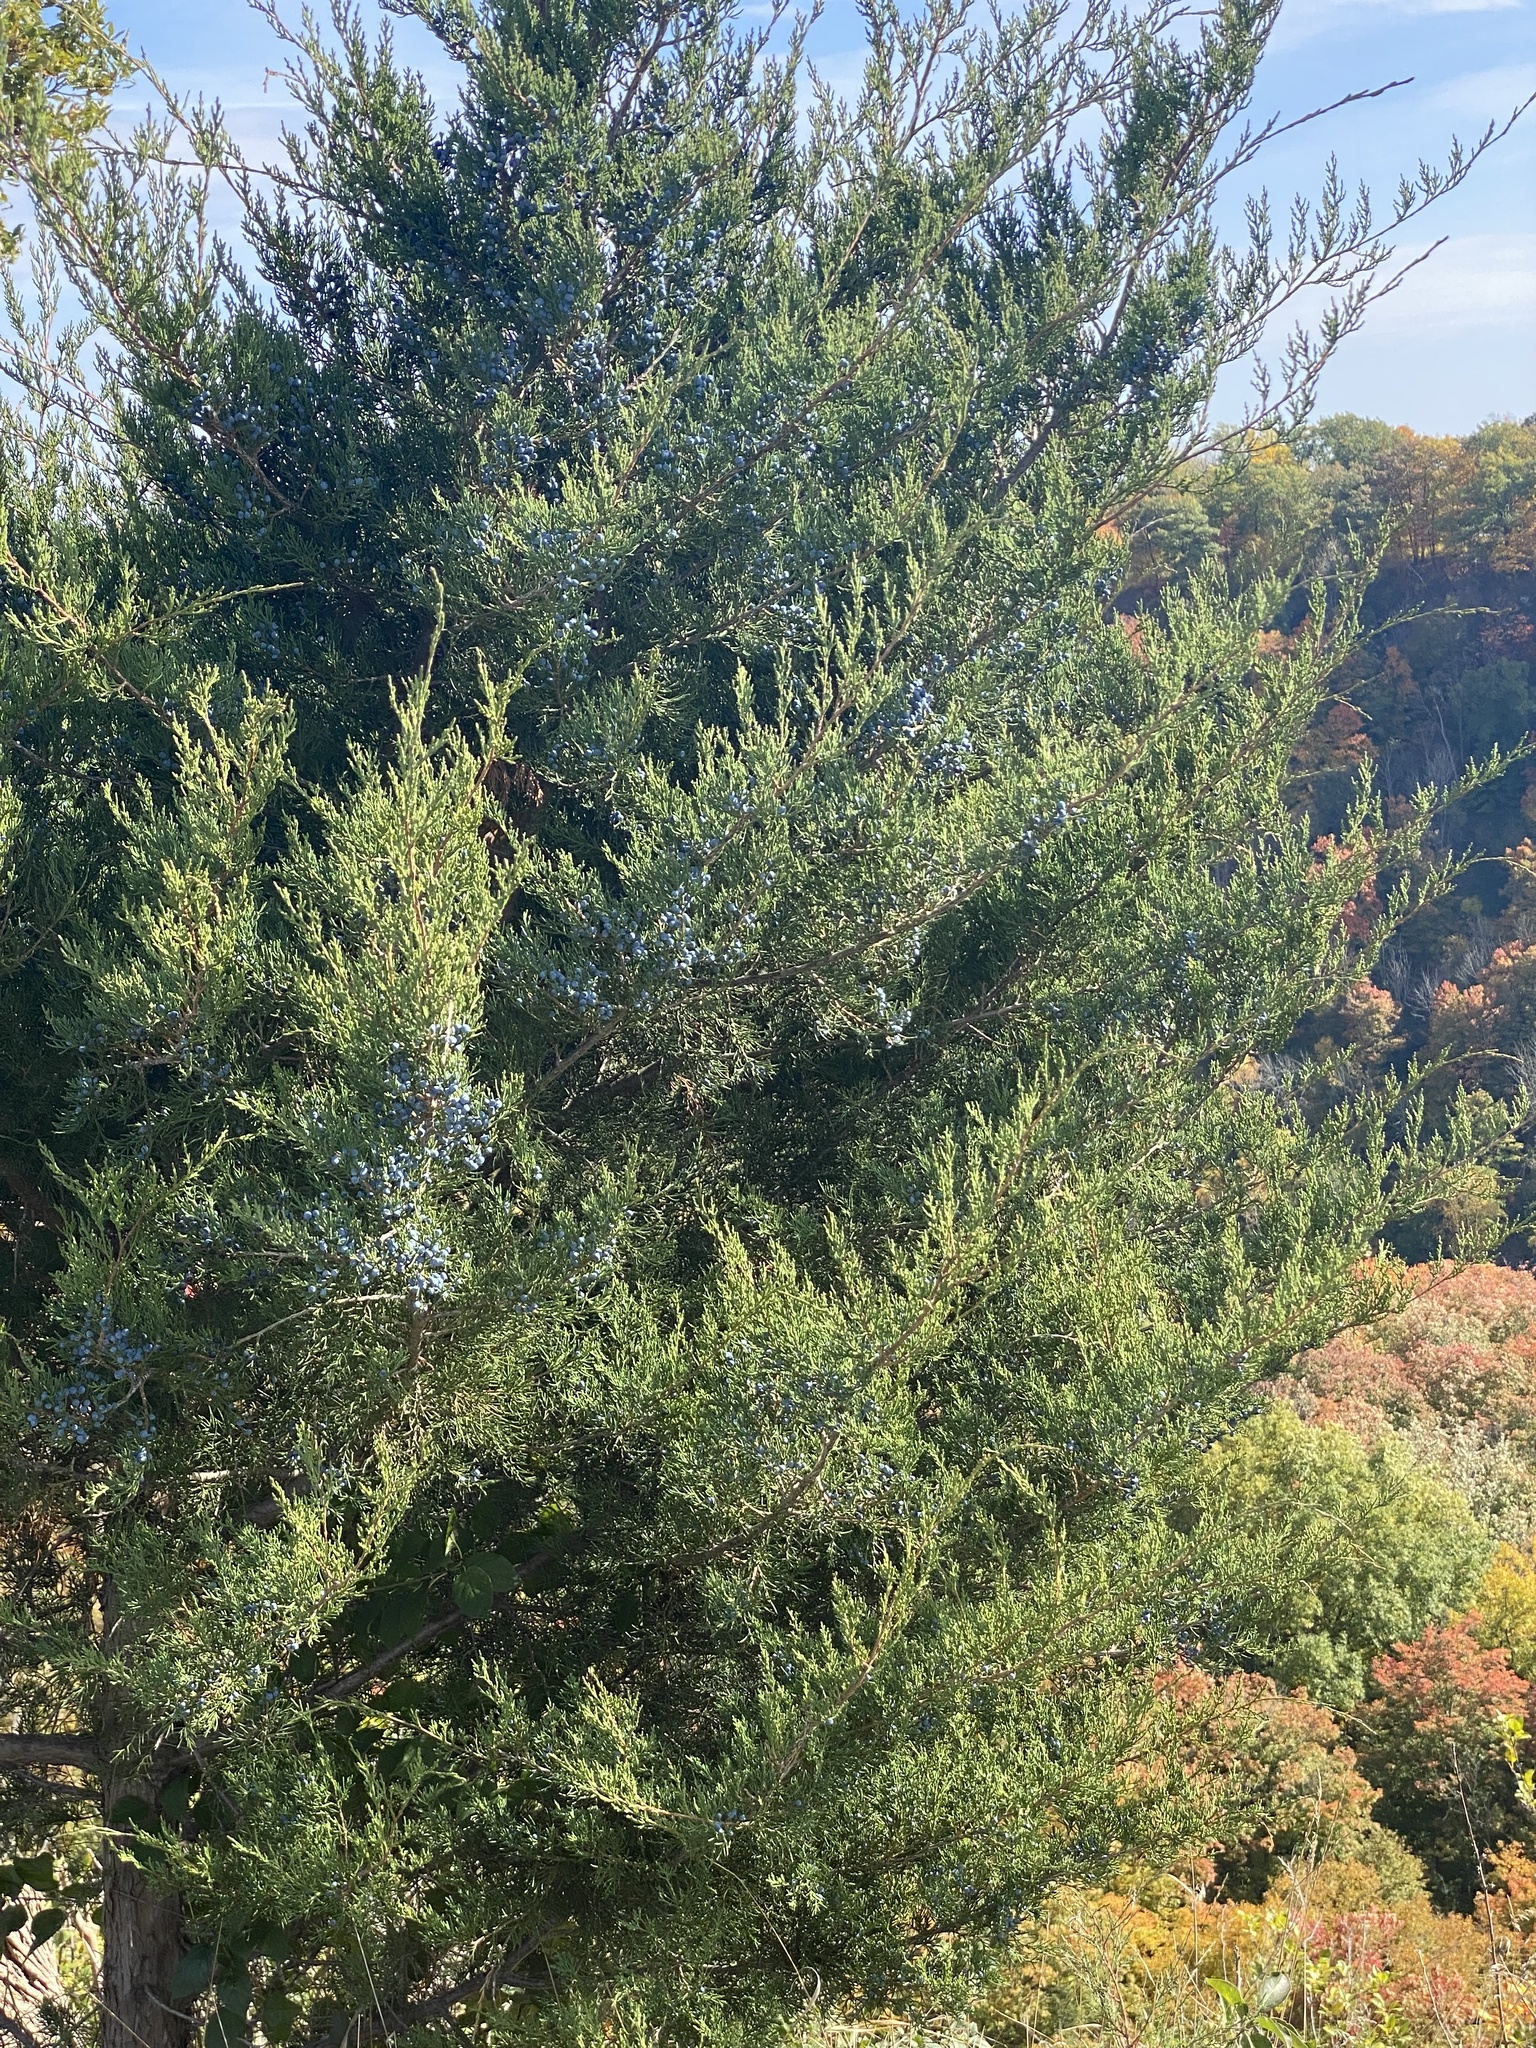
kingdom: Plantae
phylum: Tracheophyta
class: Pinopsida
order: Pinales
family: Cupressaceae
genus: Juniperus
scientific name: Juniperus virginiana
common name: Red juniper
